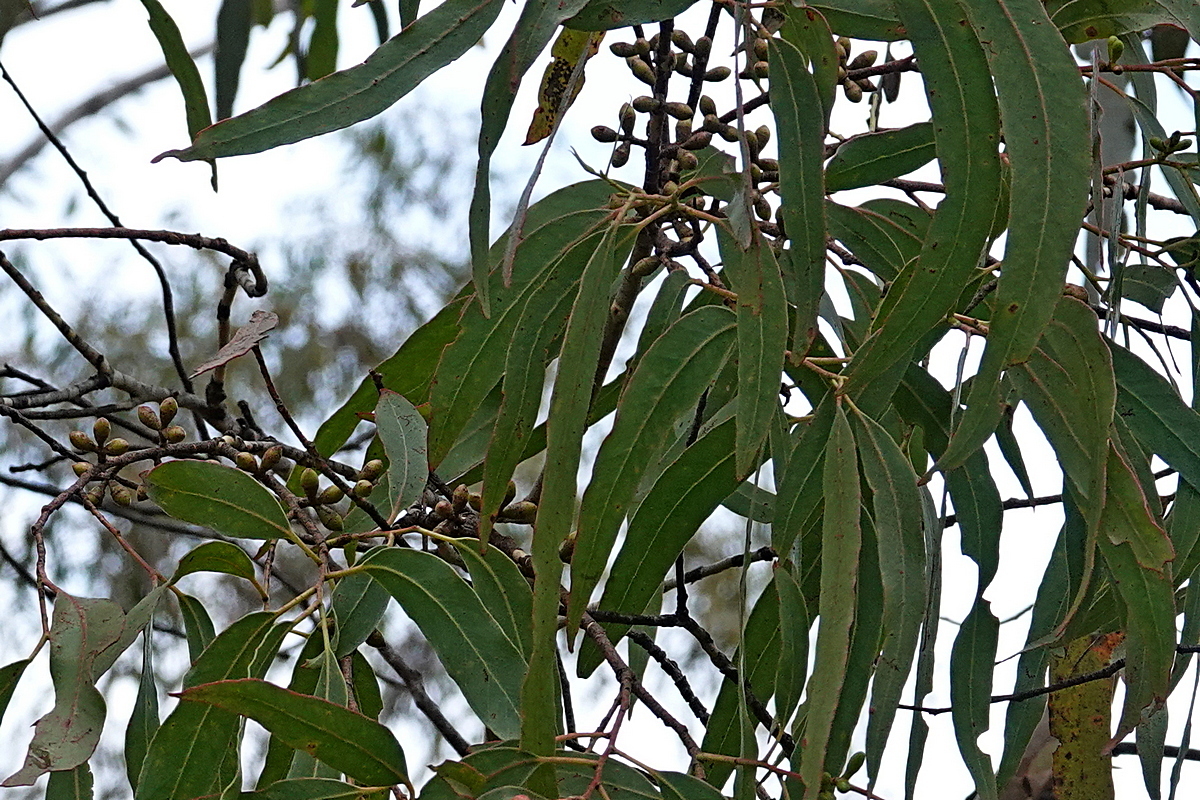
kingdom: Plantae
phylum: Tracheophyta
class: Magnoliopsida
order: Myrtales
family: Myrtaceae
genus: Eucalyptus
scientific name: Eucalyptus dalrympleana
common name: Broad-leaved kindlingbark
